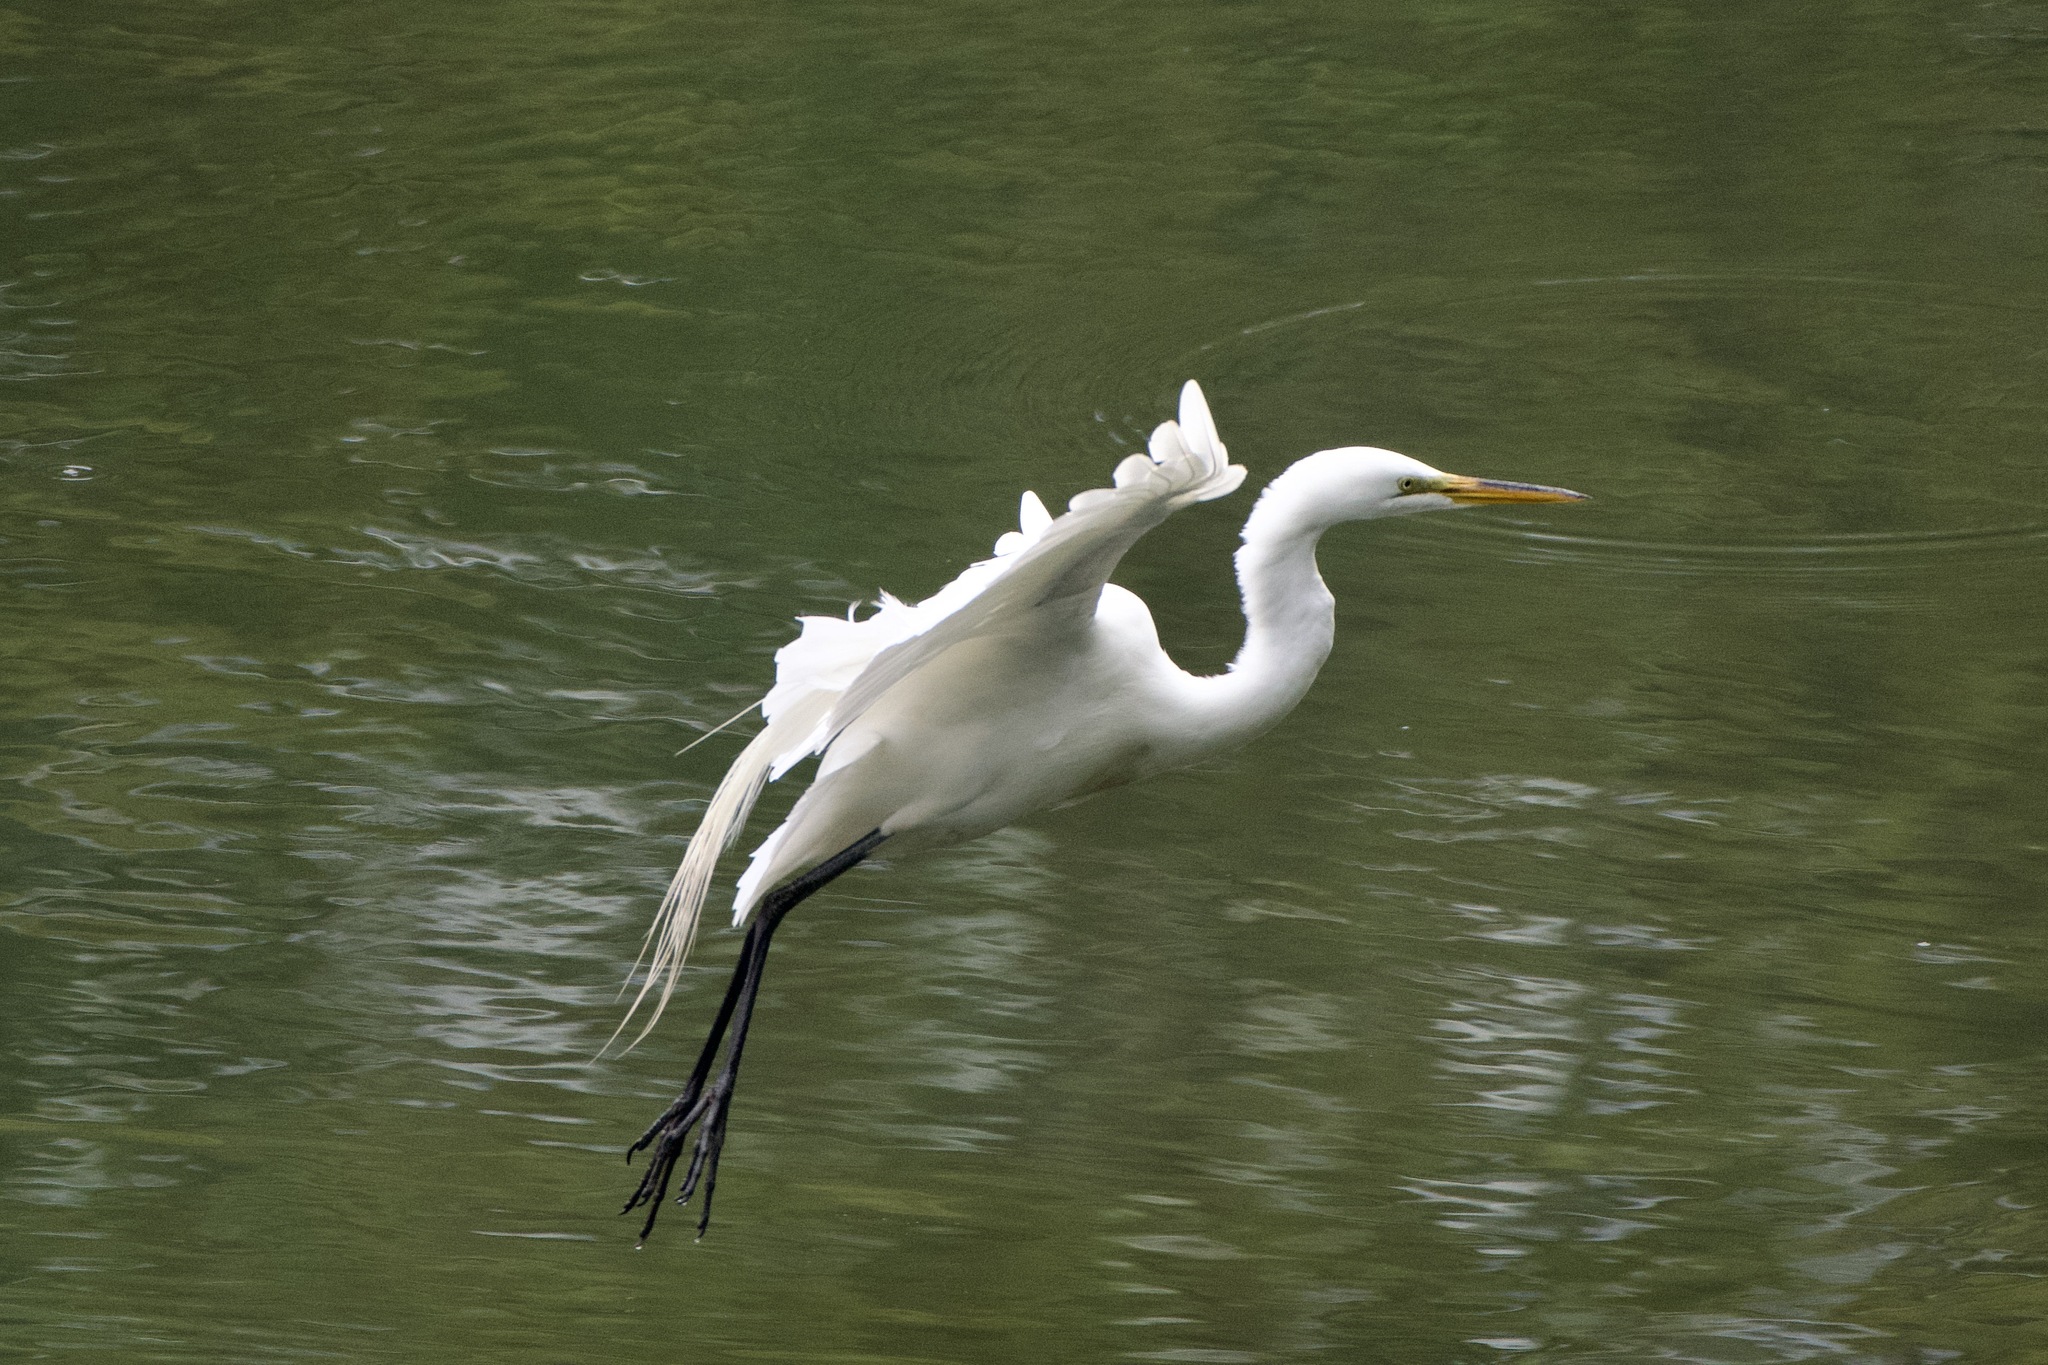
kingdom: Animalia
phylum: Chordata
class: Aves
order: Pelecaniformes
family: Ardeidae
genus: Ardea
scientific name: Ardea alba
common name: Great egret
